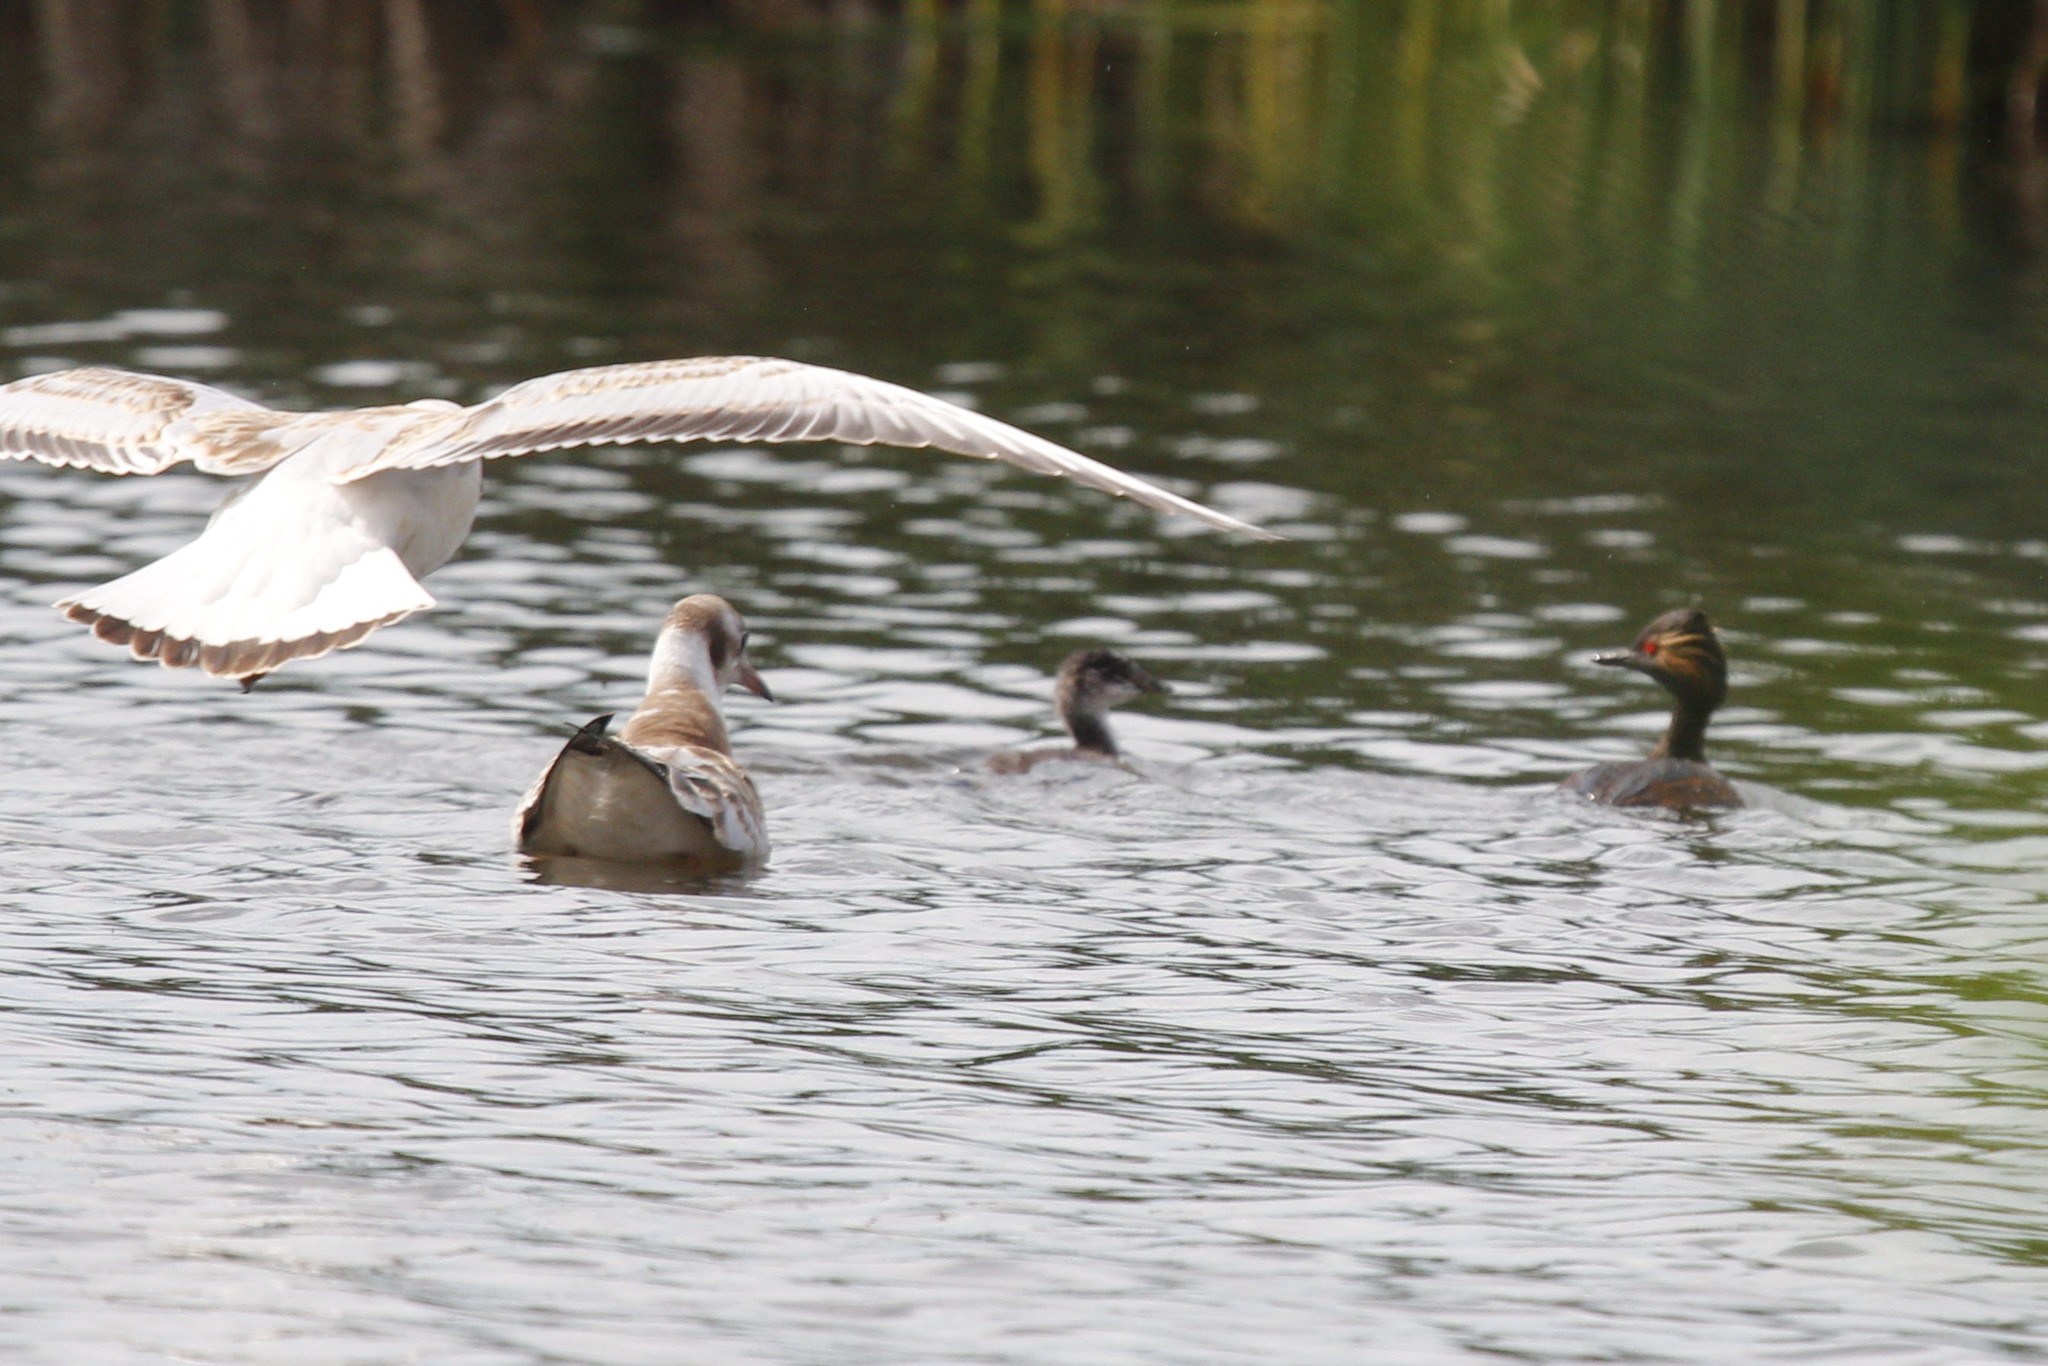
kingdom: Animalia
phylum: Chordata
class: Aves
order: Podicipediformes
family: Podicipedidae
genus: Podiceps
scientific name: Podiceps nigricollis
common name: Black-necked grebe
